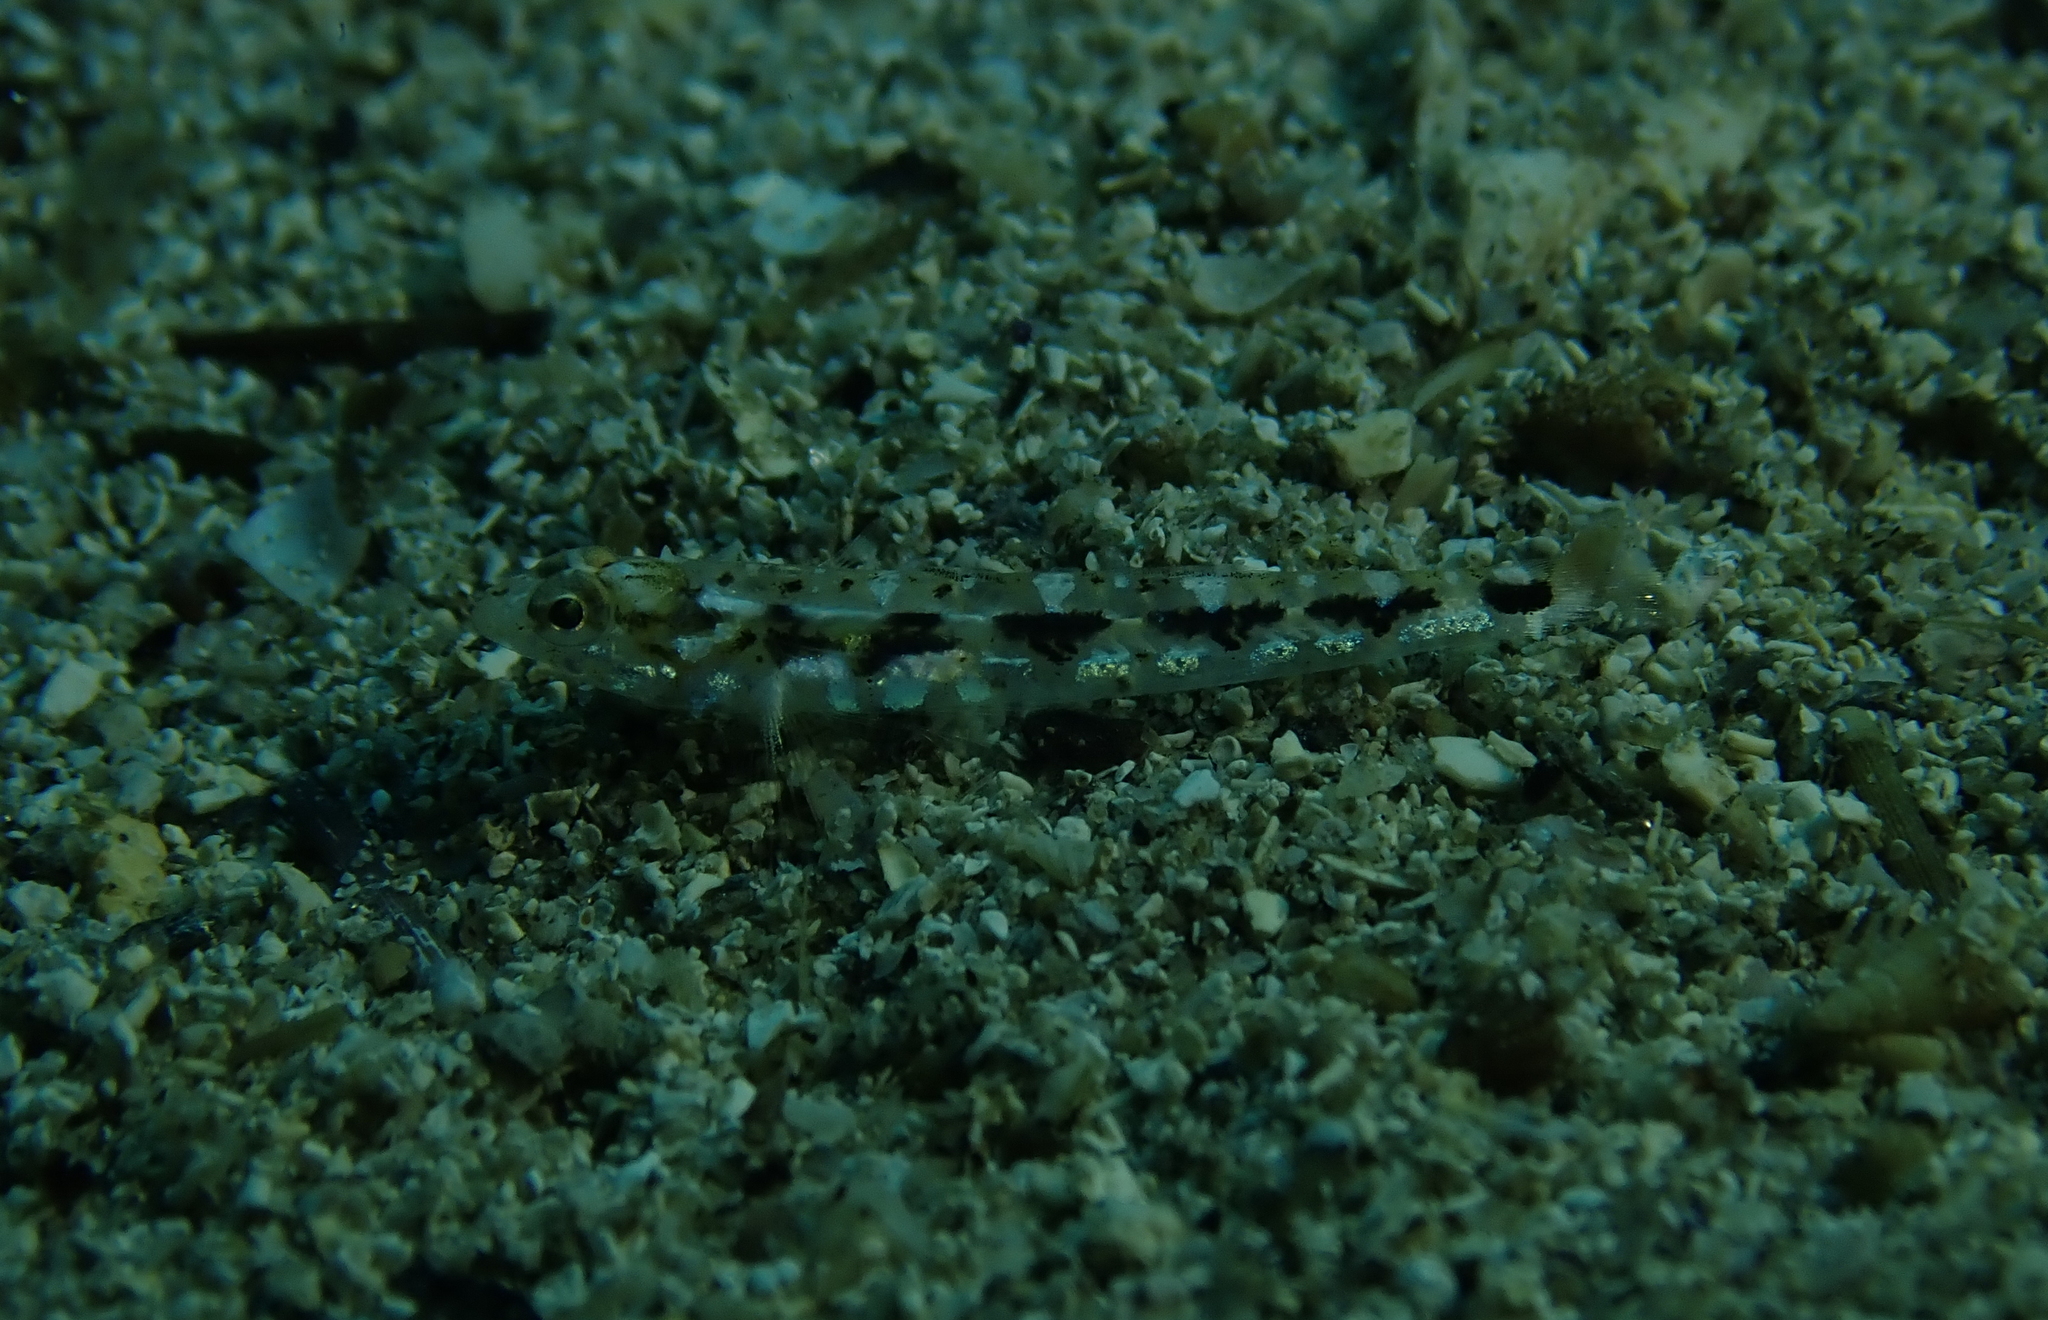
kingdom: Animalia
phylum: Chordata
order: Perciformes
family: Gobiidae
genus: Pomatoschistus
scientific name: Pomatoschistus bathi
